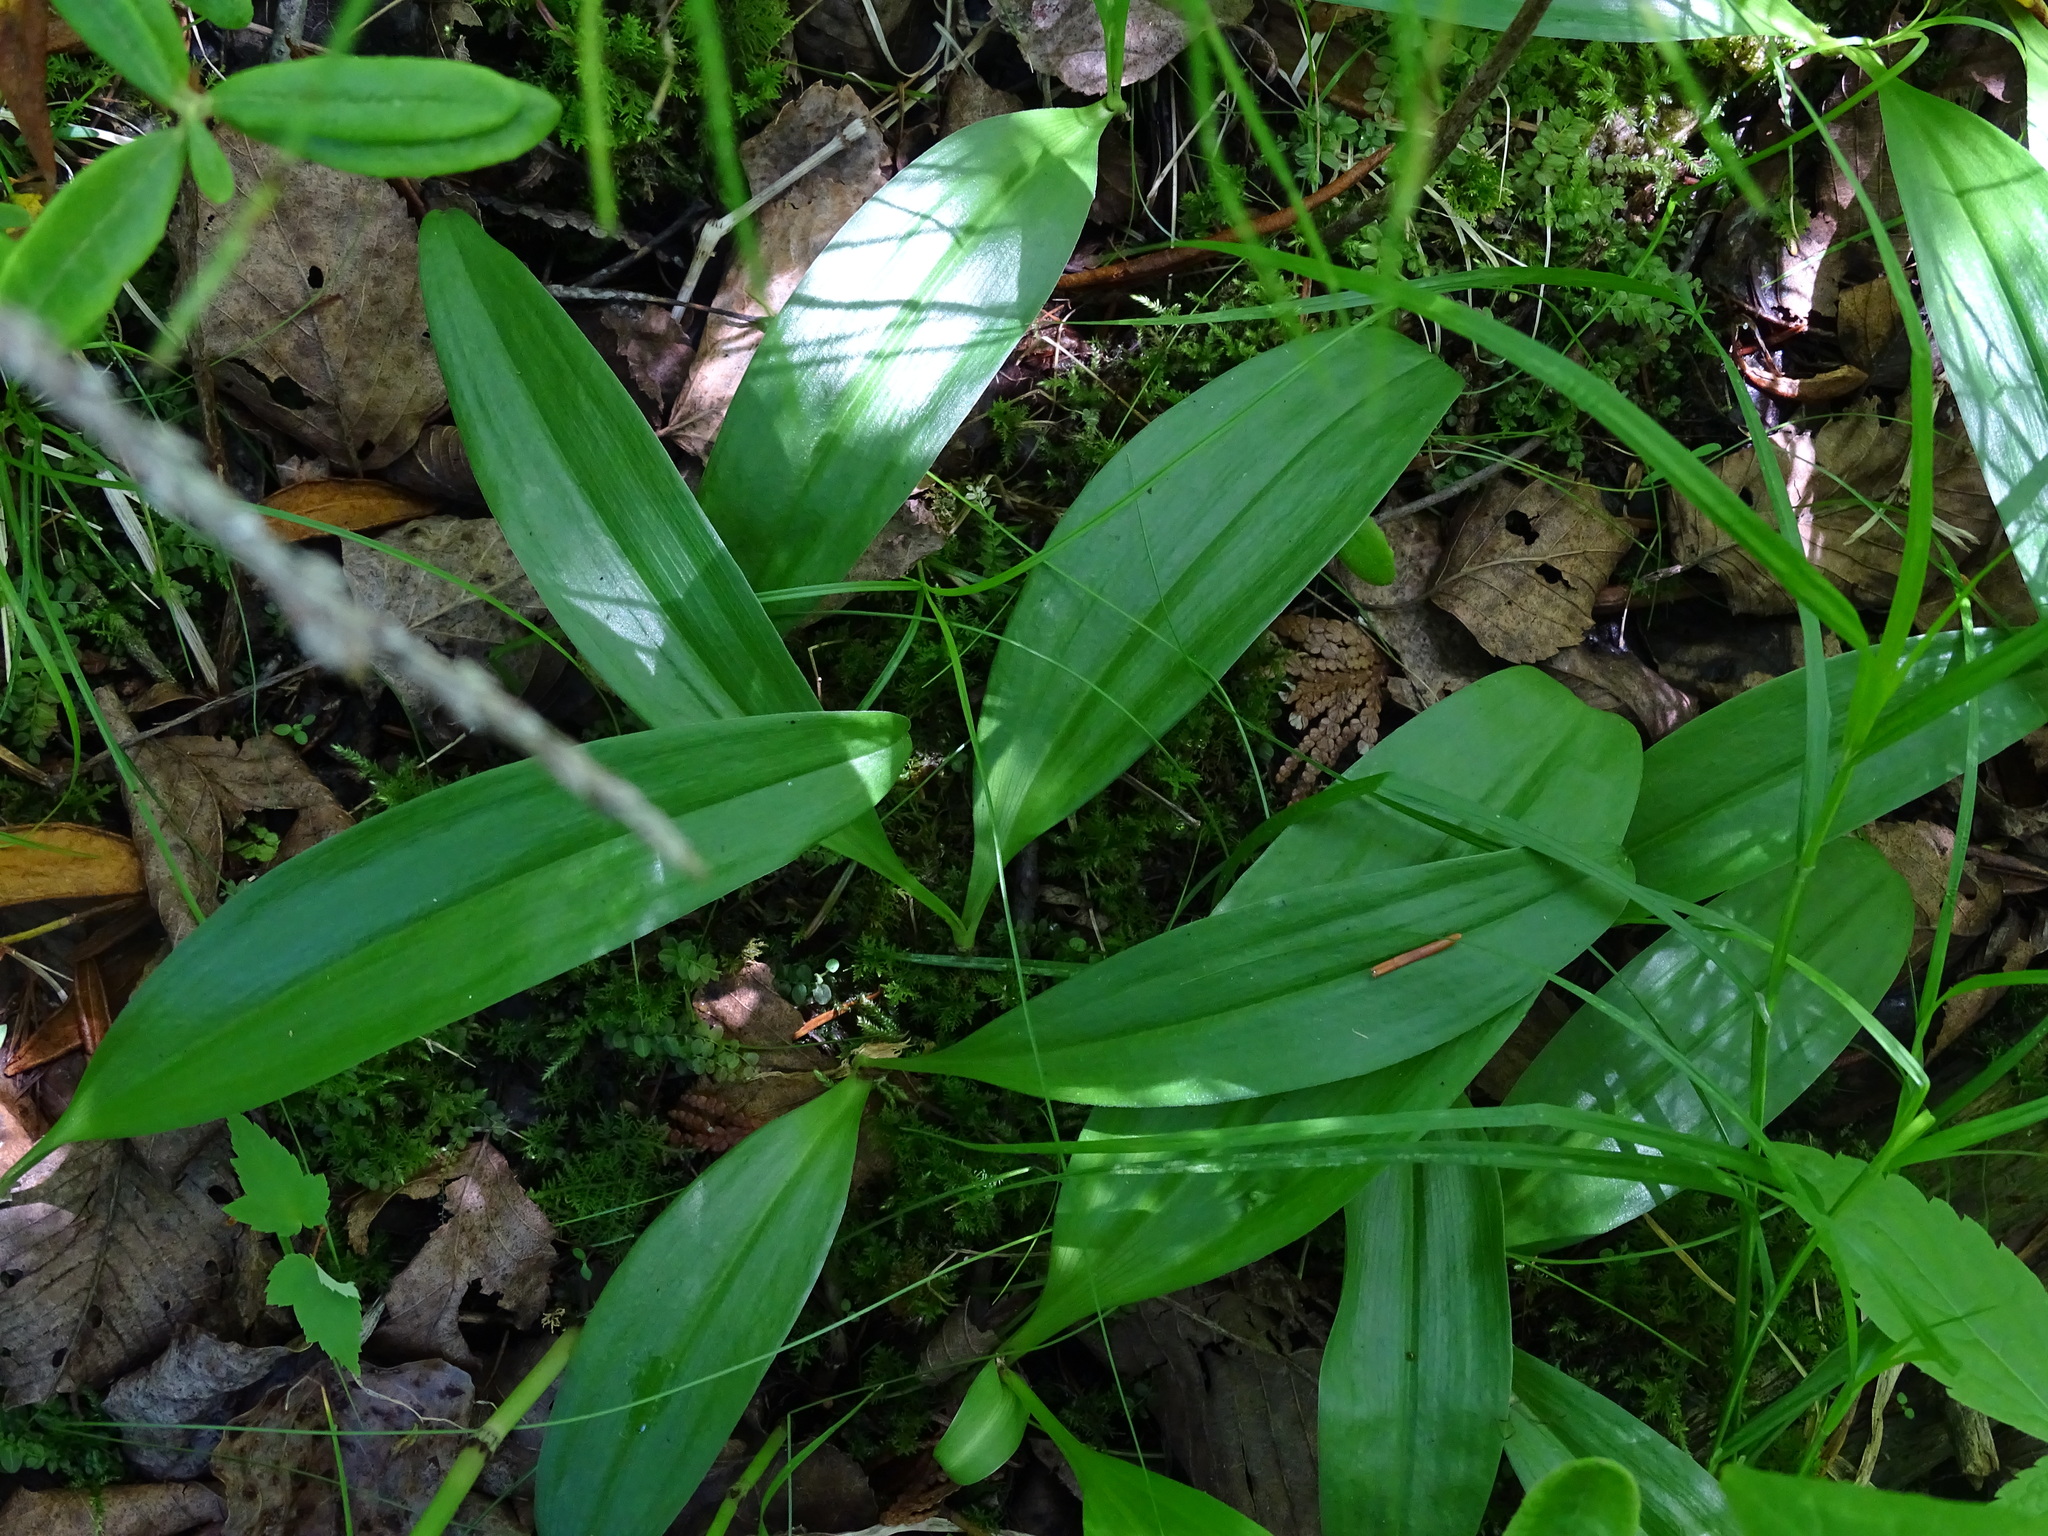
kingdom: Plantae
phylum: Tracheophyta
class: Liliopsida
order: Asparagales
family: Asparagaceae
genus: Maianthemum
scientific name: Maianthemum trifolium
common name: Swamp false solomon's seal
